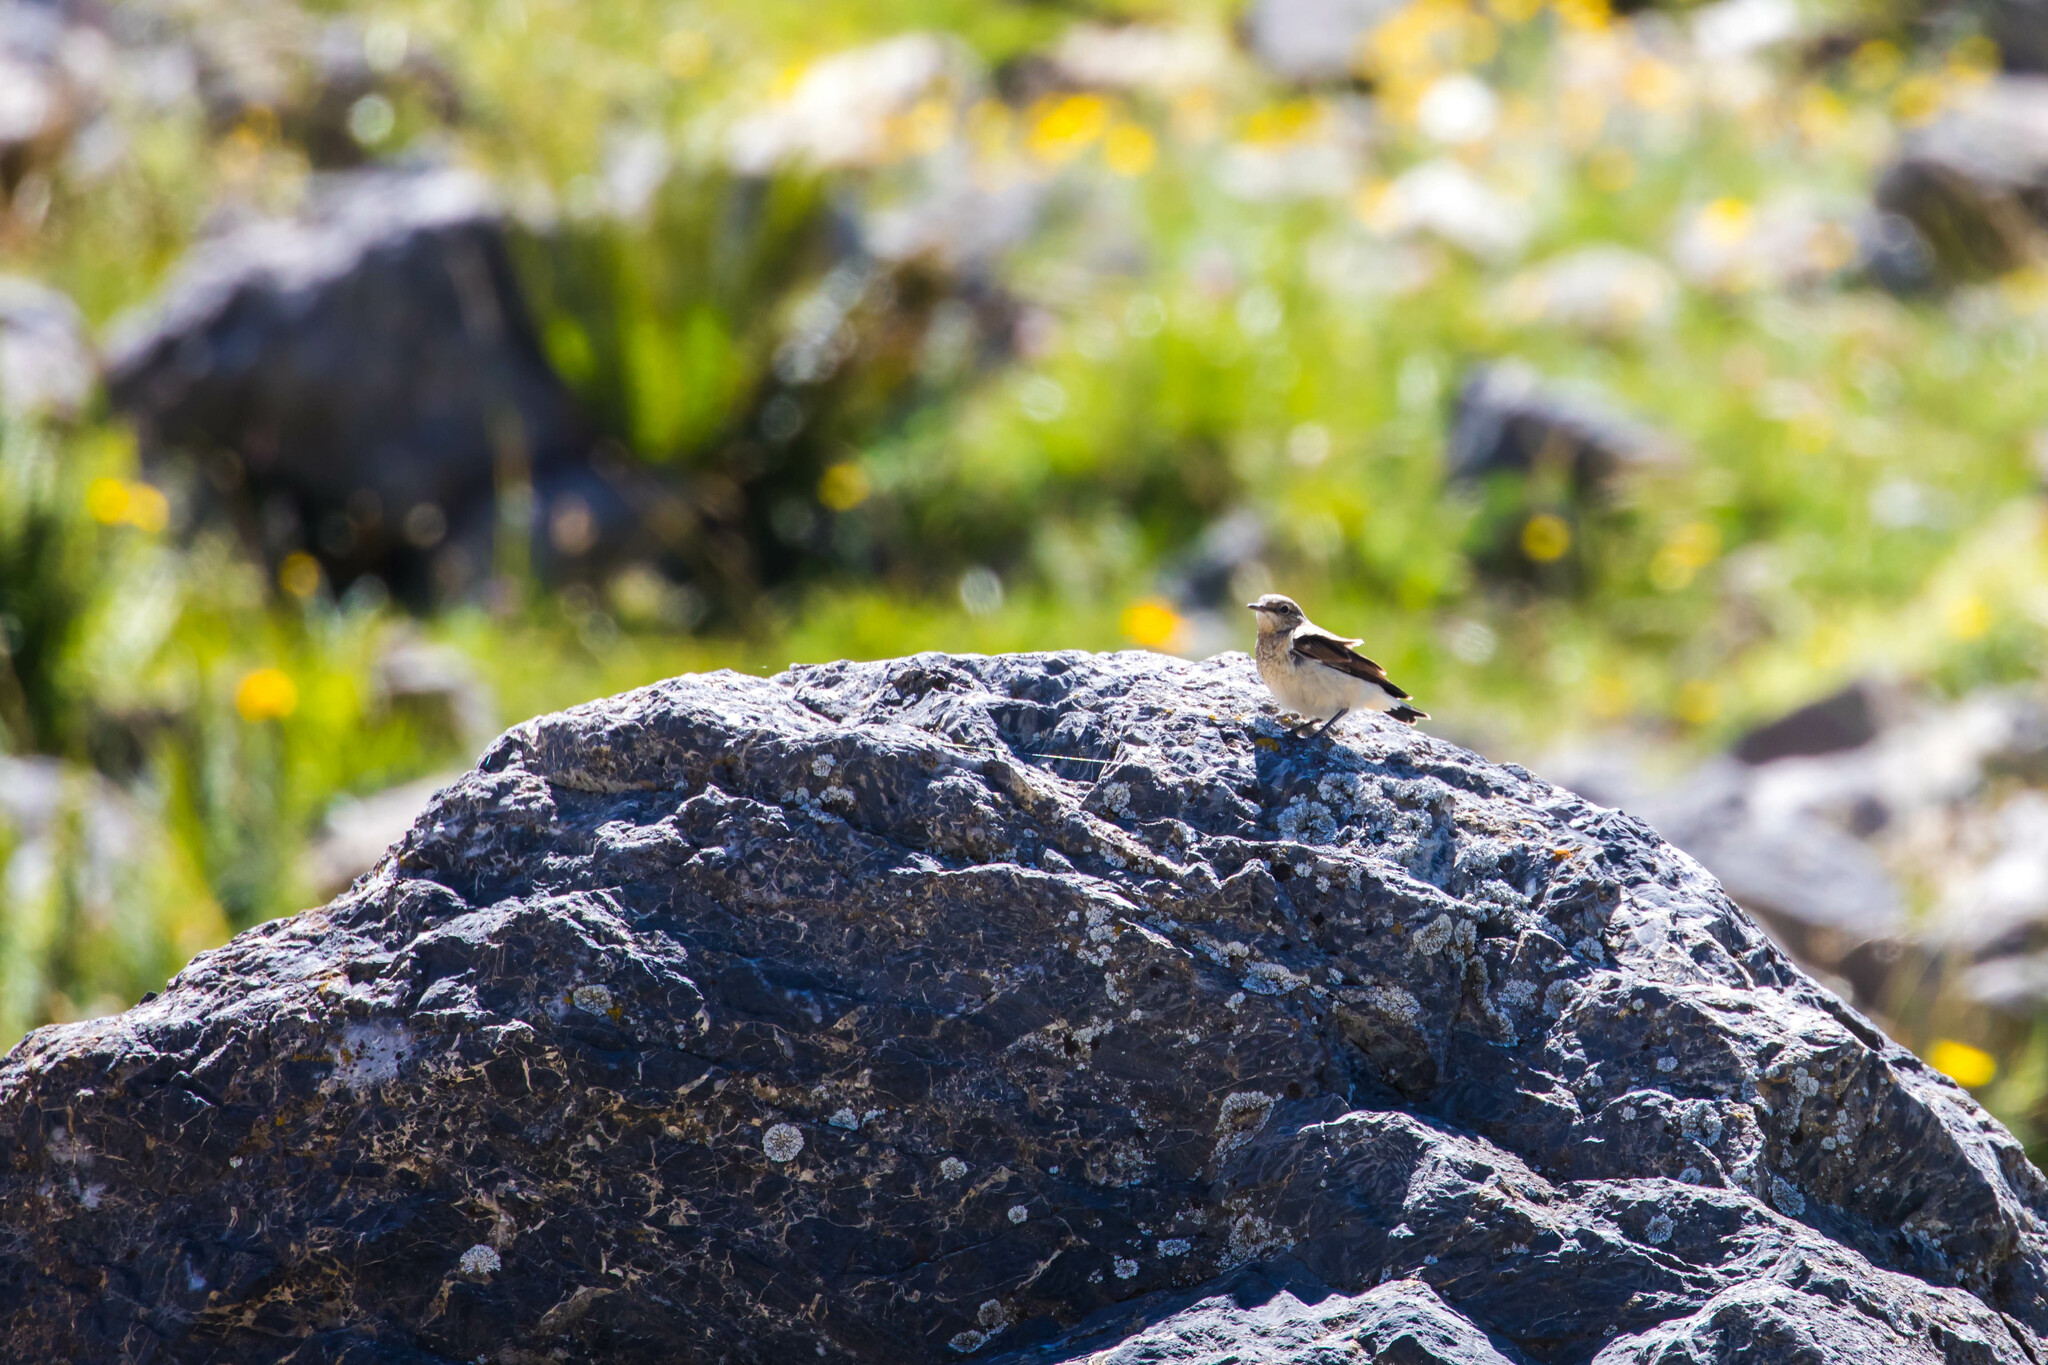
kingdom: Animalia
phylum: Chordata
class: Aves
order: Passeriformes
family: Muscicapidae
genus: Oenanthe
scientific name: Oenanthe oenanthe
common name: Northern wheatear
